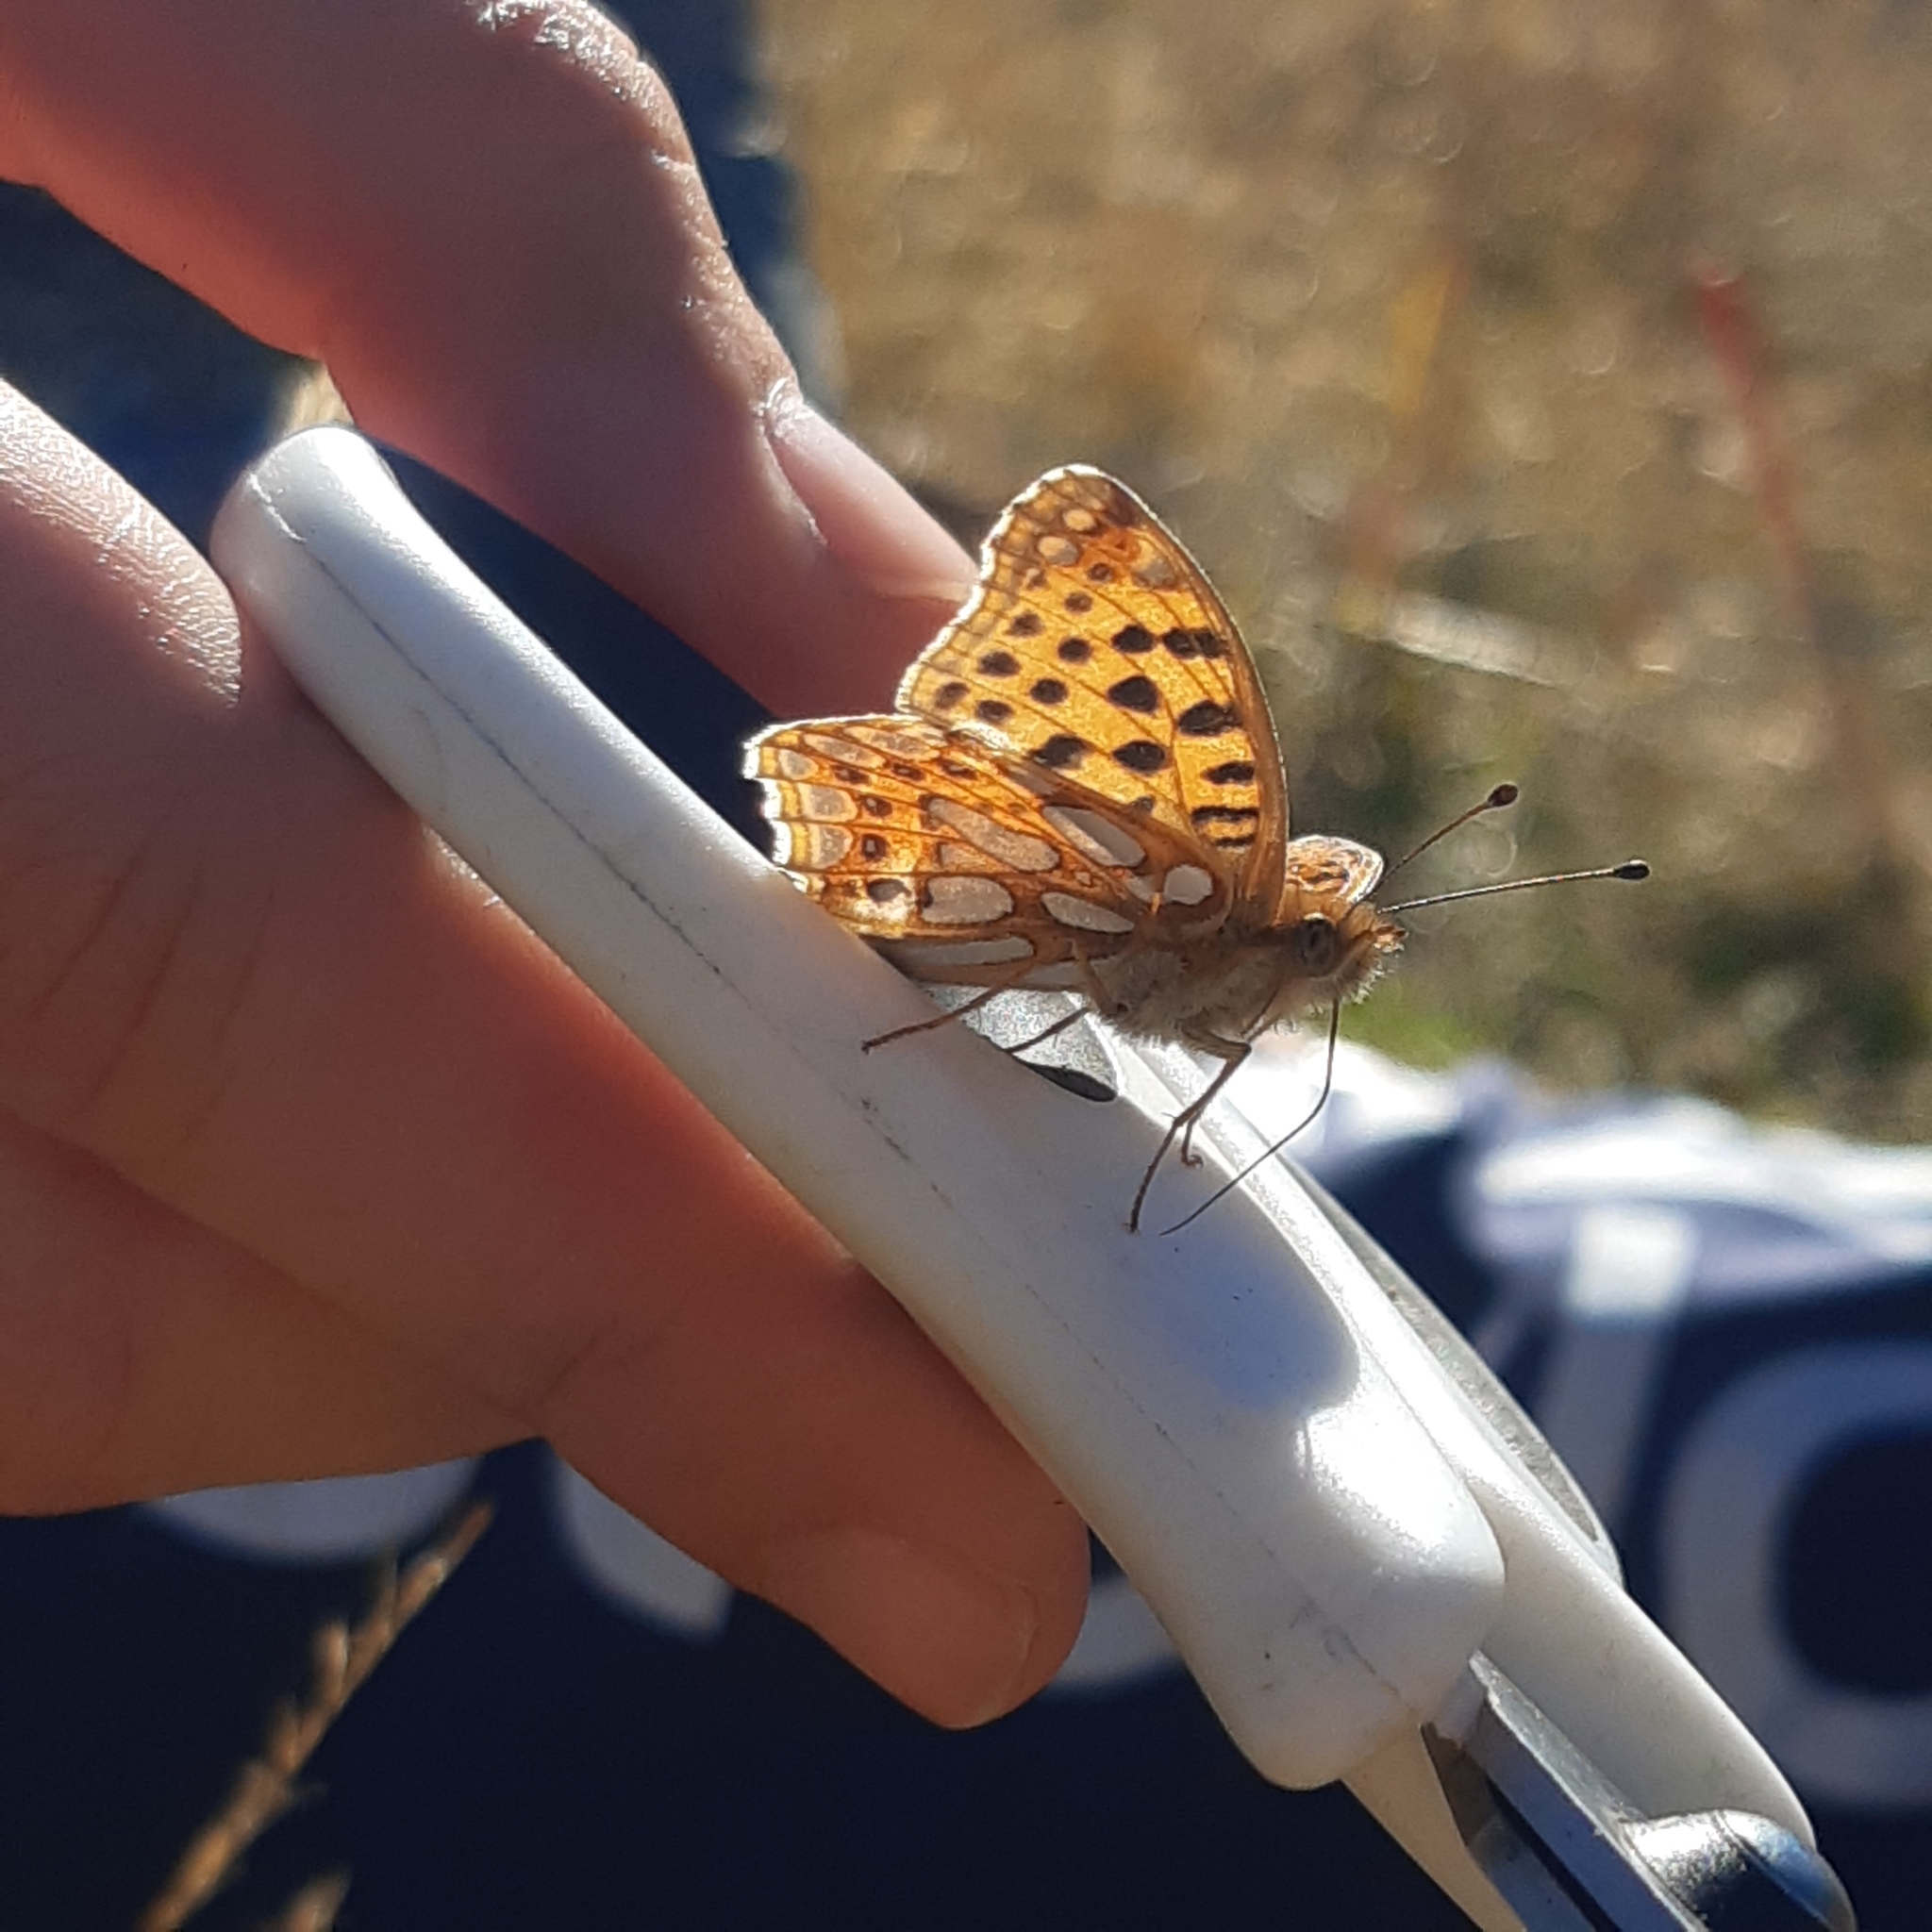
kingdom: Animalia
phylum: Arthropoda
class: Insecta
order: Lepidoptera
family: Nymphalidae
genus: Issoria
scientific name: Issoria lathonia
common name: Queen of spain fritillary
